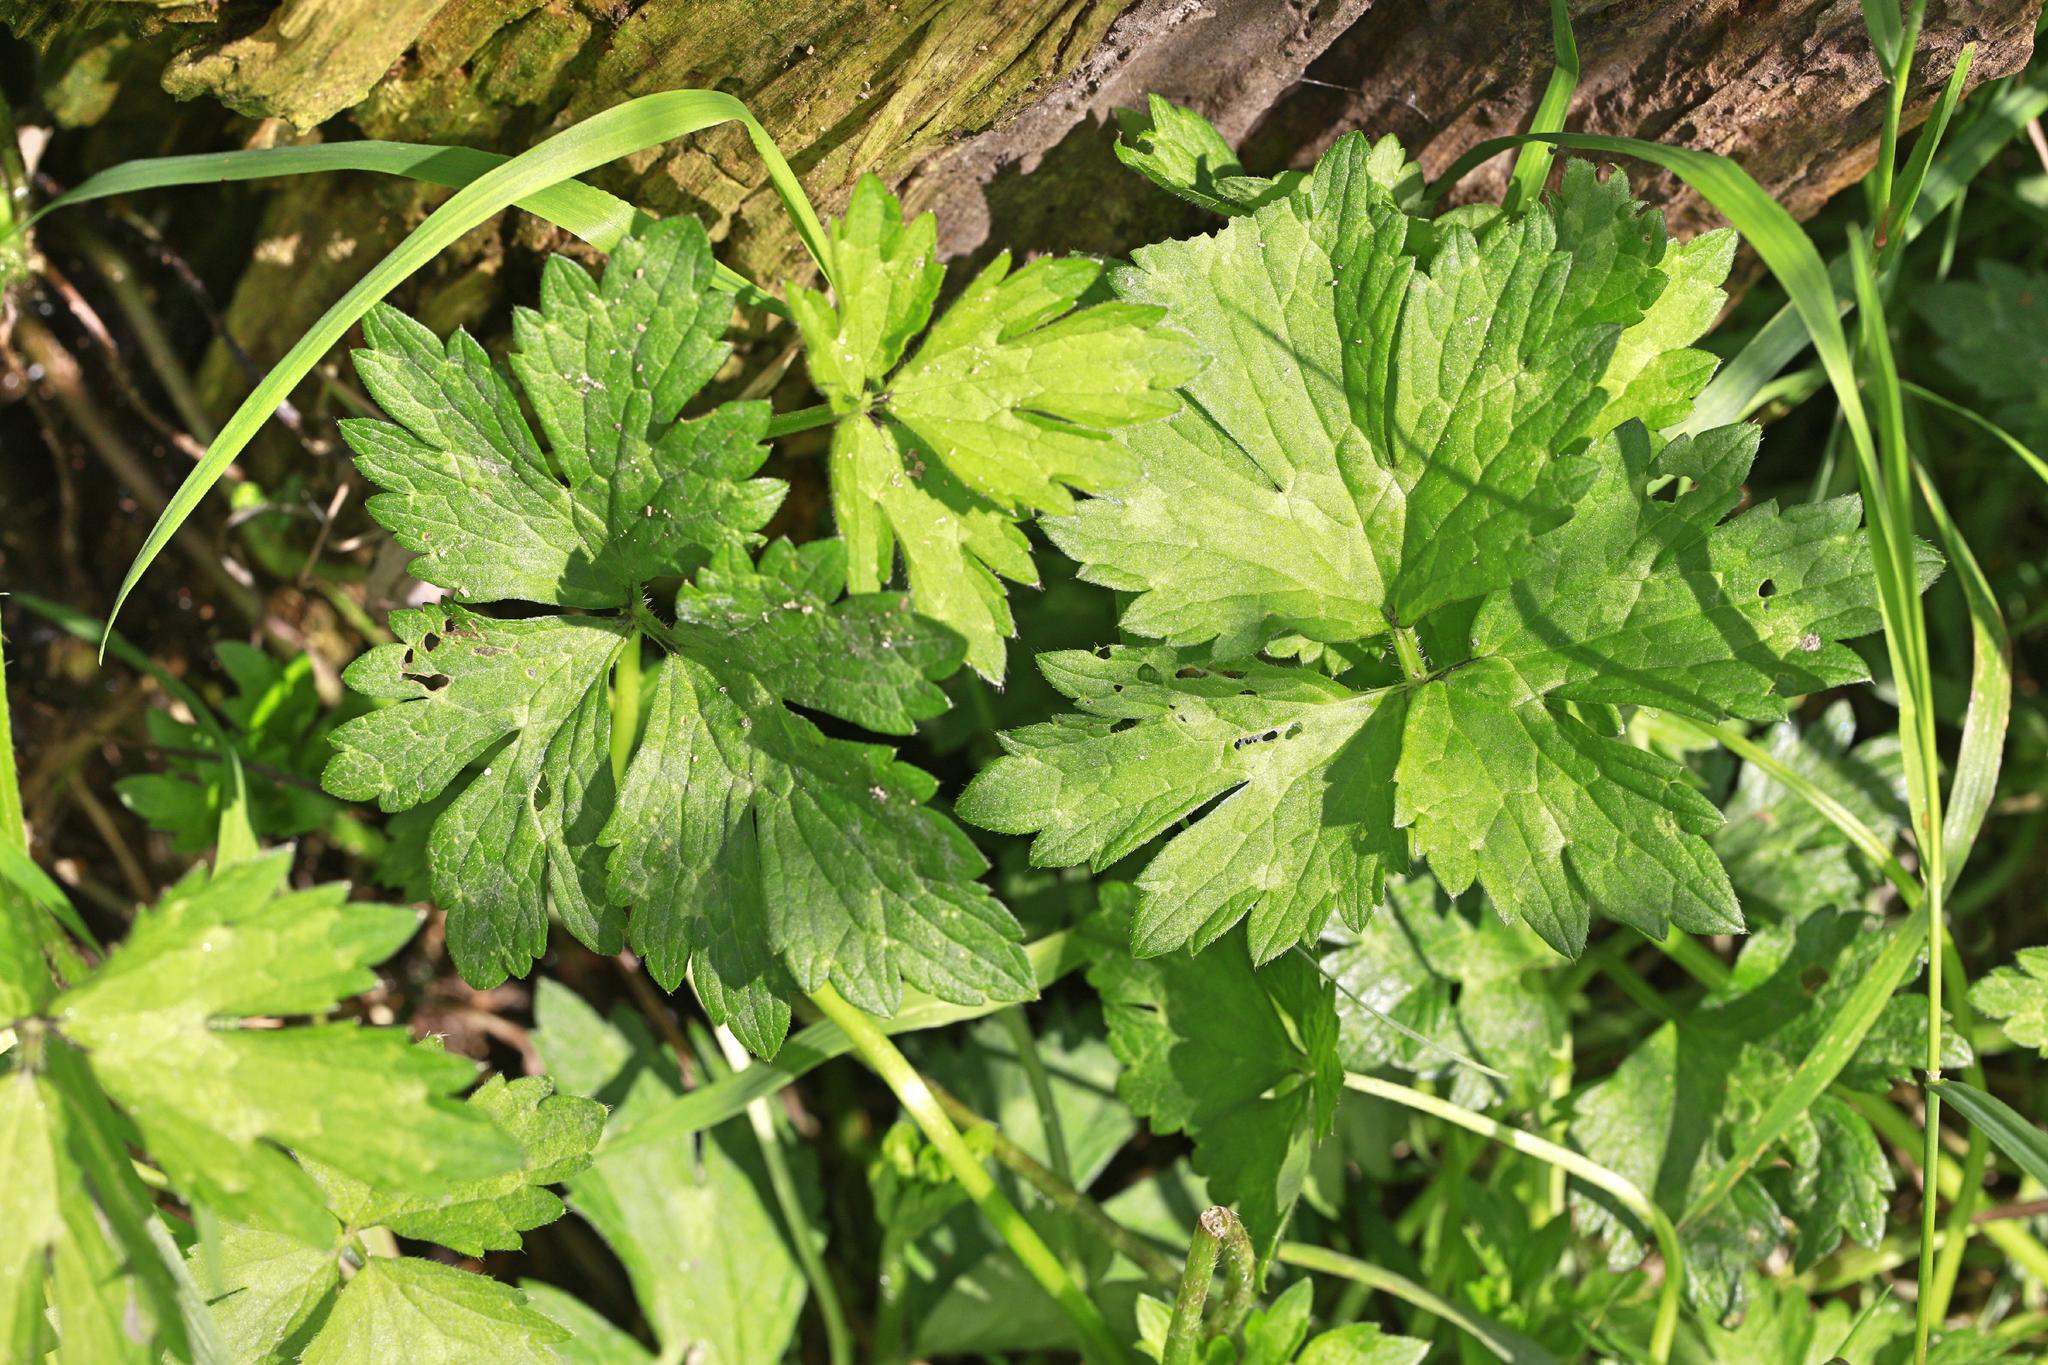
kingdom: Plantae
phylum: Tracheophyta
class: Magnoliopsida
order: Ranunculales
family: Ranunculaceae
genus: Ranunculus
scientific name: Ranunculus repens
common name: Creeping buttercup
